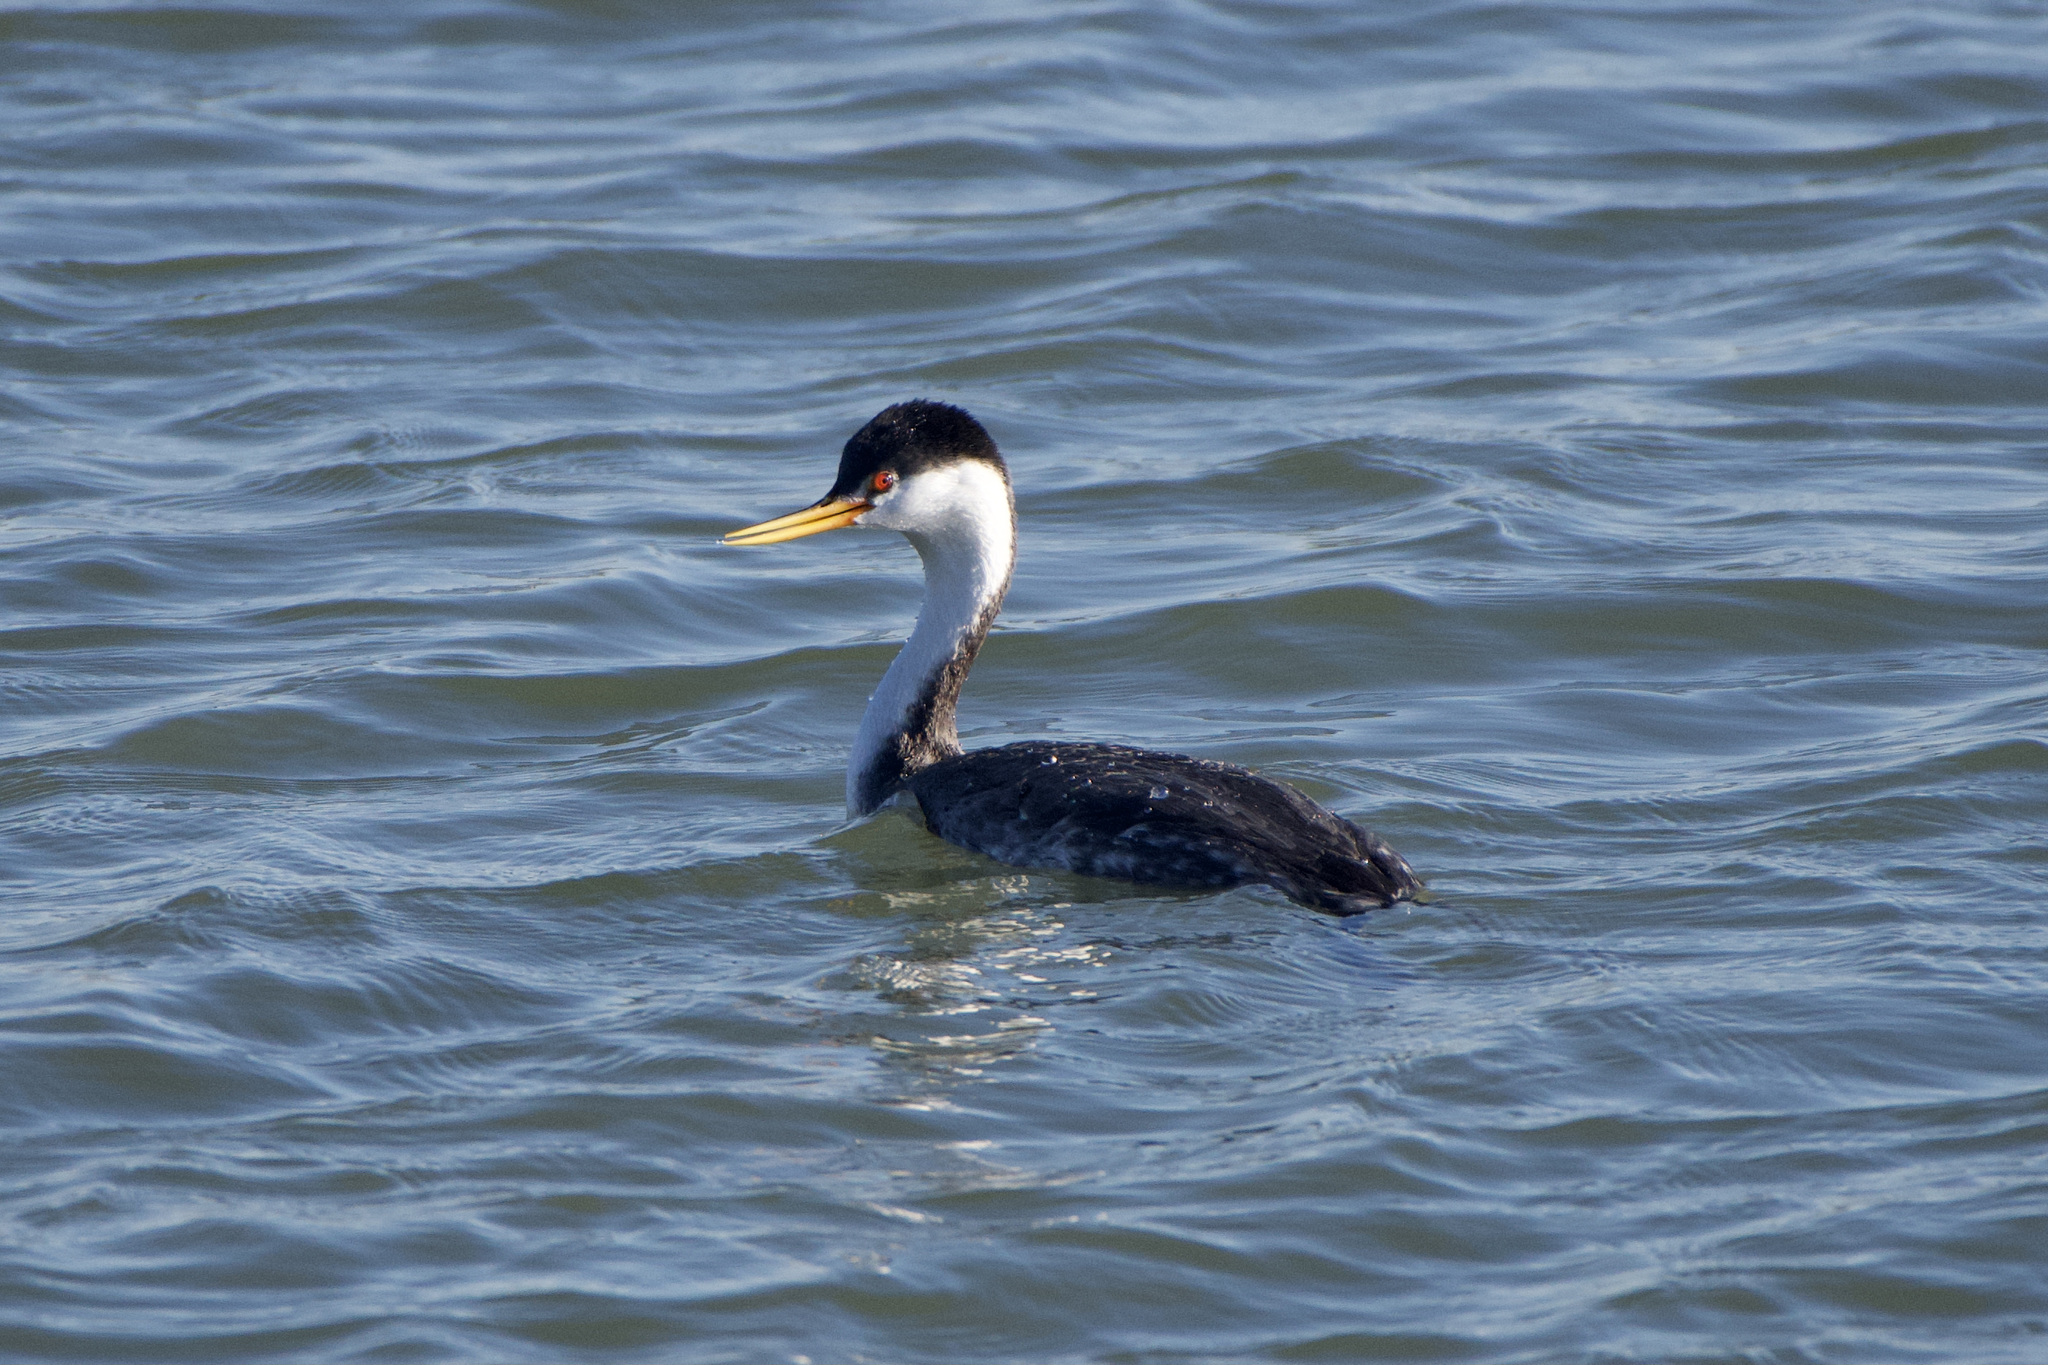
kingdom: Animalia
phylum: Chordata
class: Aves
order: Podicipediformes
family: Podicipedidae
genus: Aechmophorus
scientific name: Aechmophorus clarkii
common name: Clark's grebe
